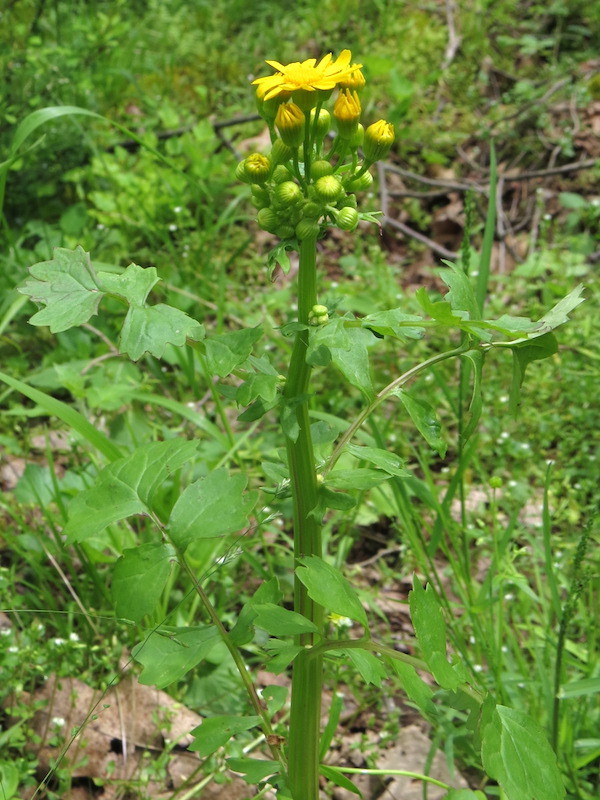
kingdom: Plantae
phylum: Tracheophyta
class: Magnoliopsida
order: Asterales
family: Asteraceae
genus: Packera
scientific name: Packera glabella
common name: Butterweed
